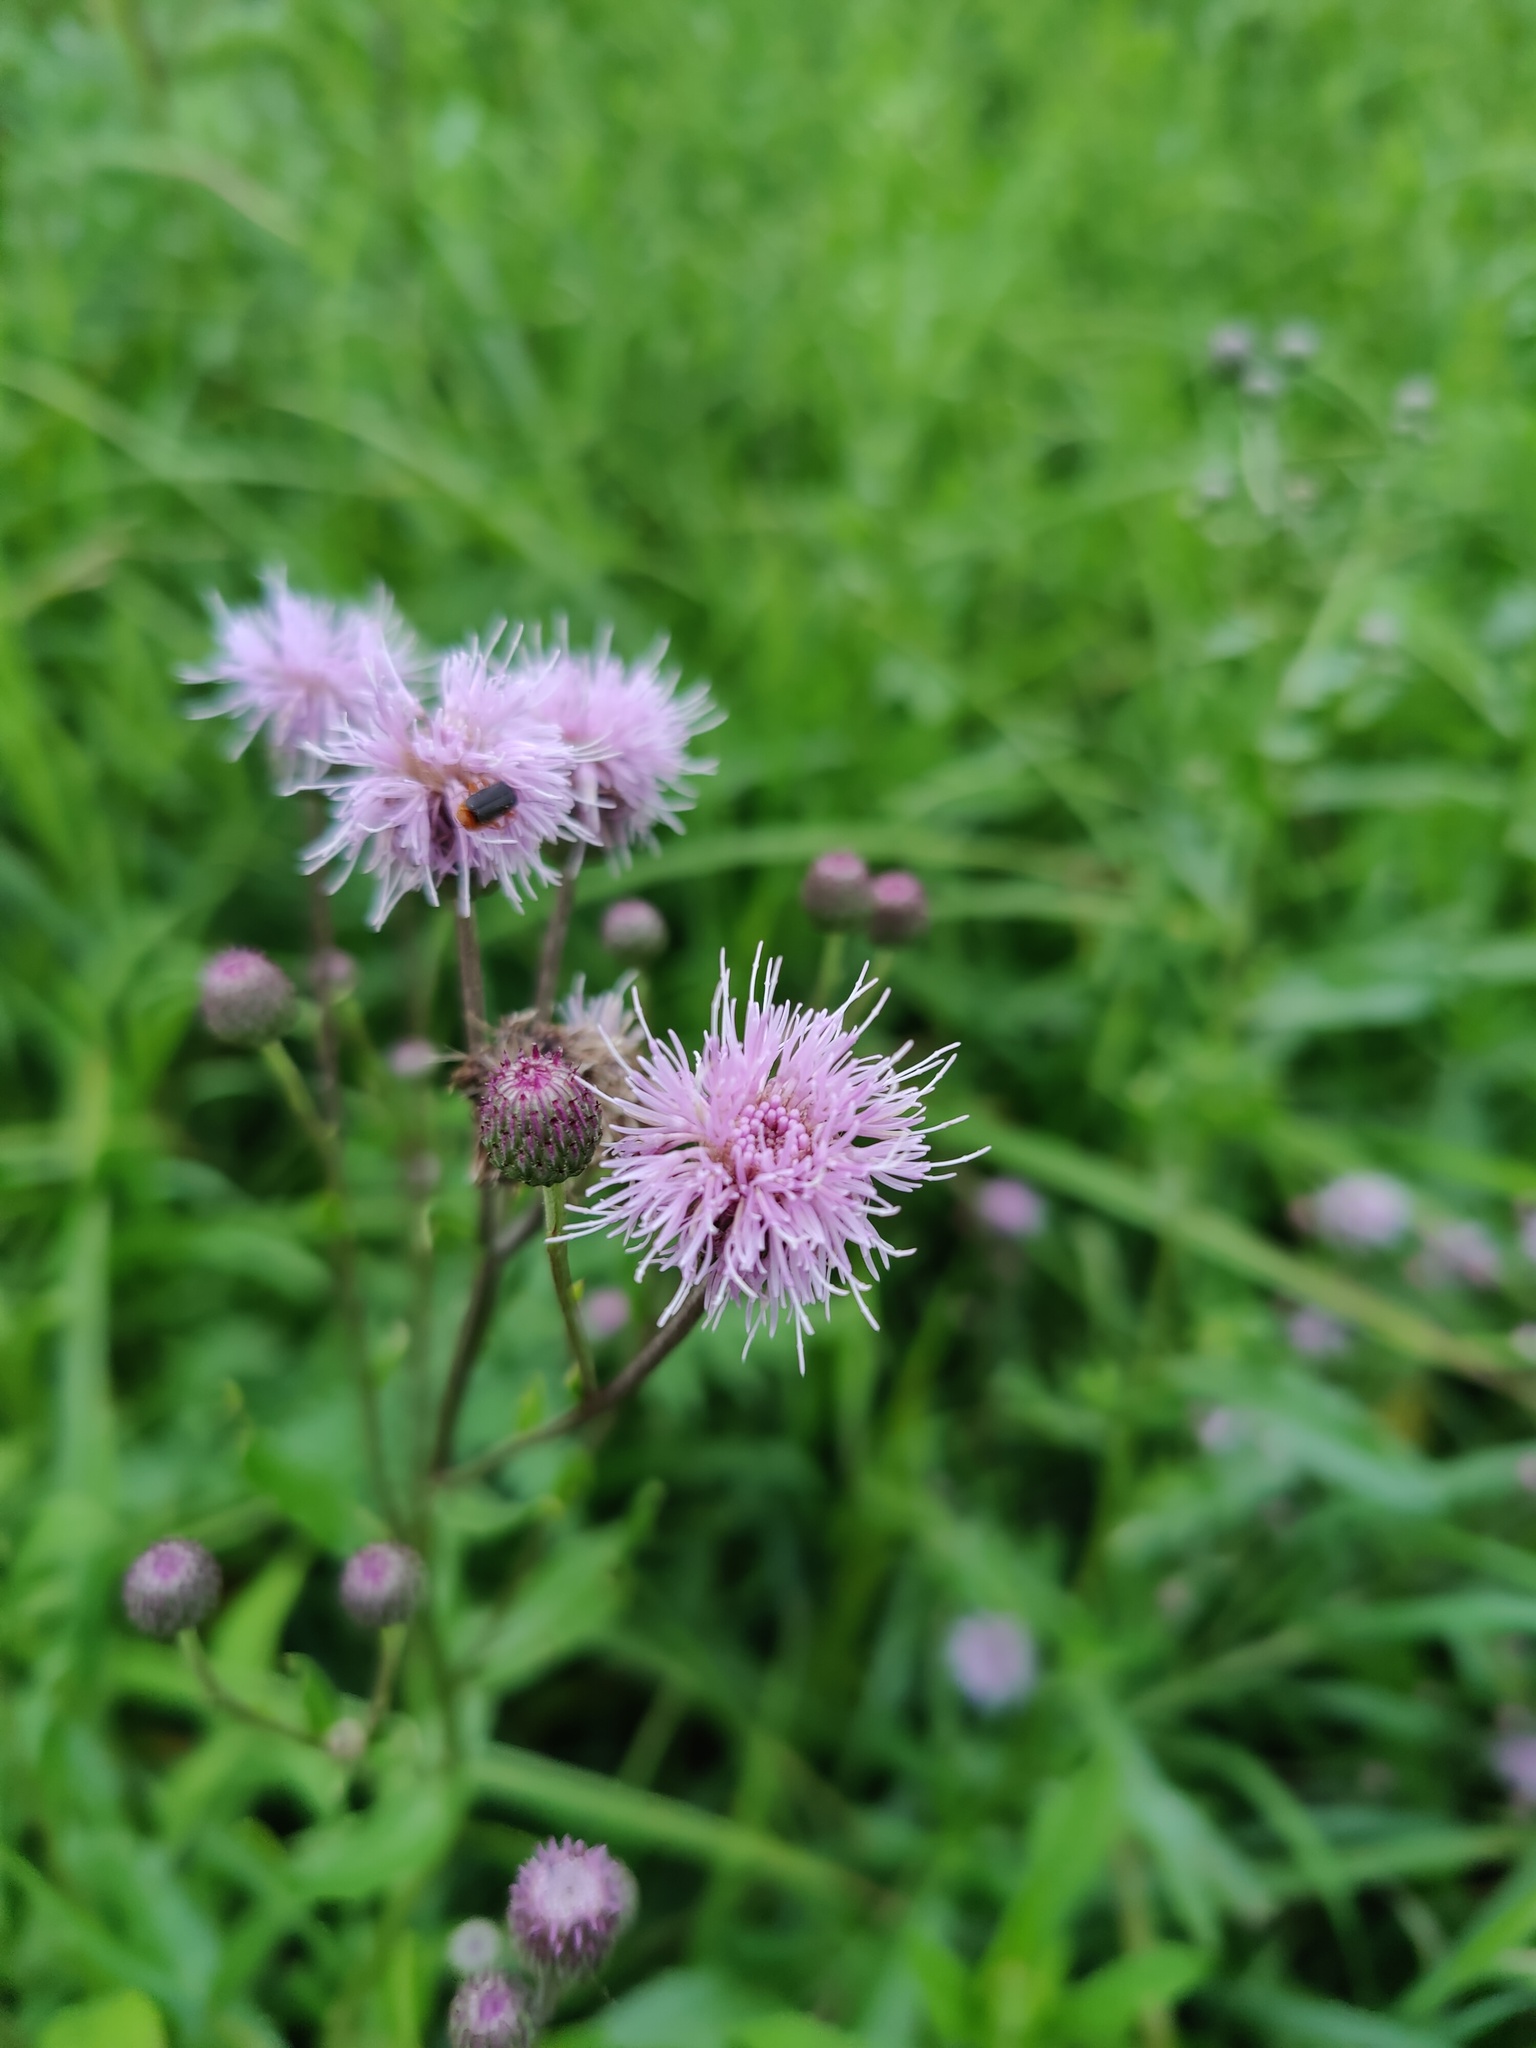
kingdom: Plantae
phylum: Tracheophyta
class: Magnoliopsida
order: Asterales
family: Asteraceae
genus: Cirsium
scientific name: Cirsium arvense
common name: Creeping thistle
